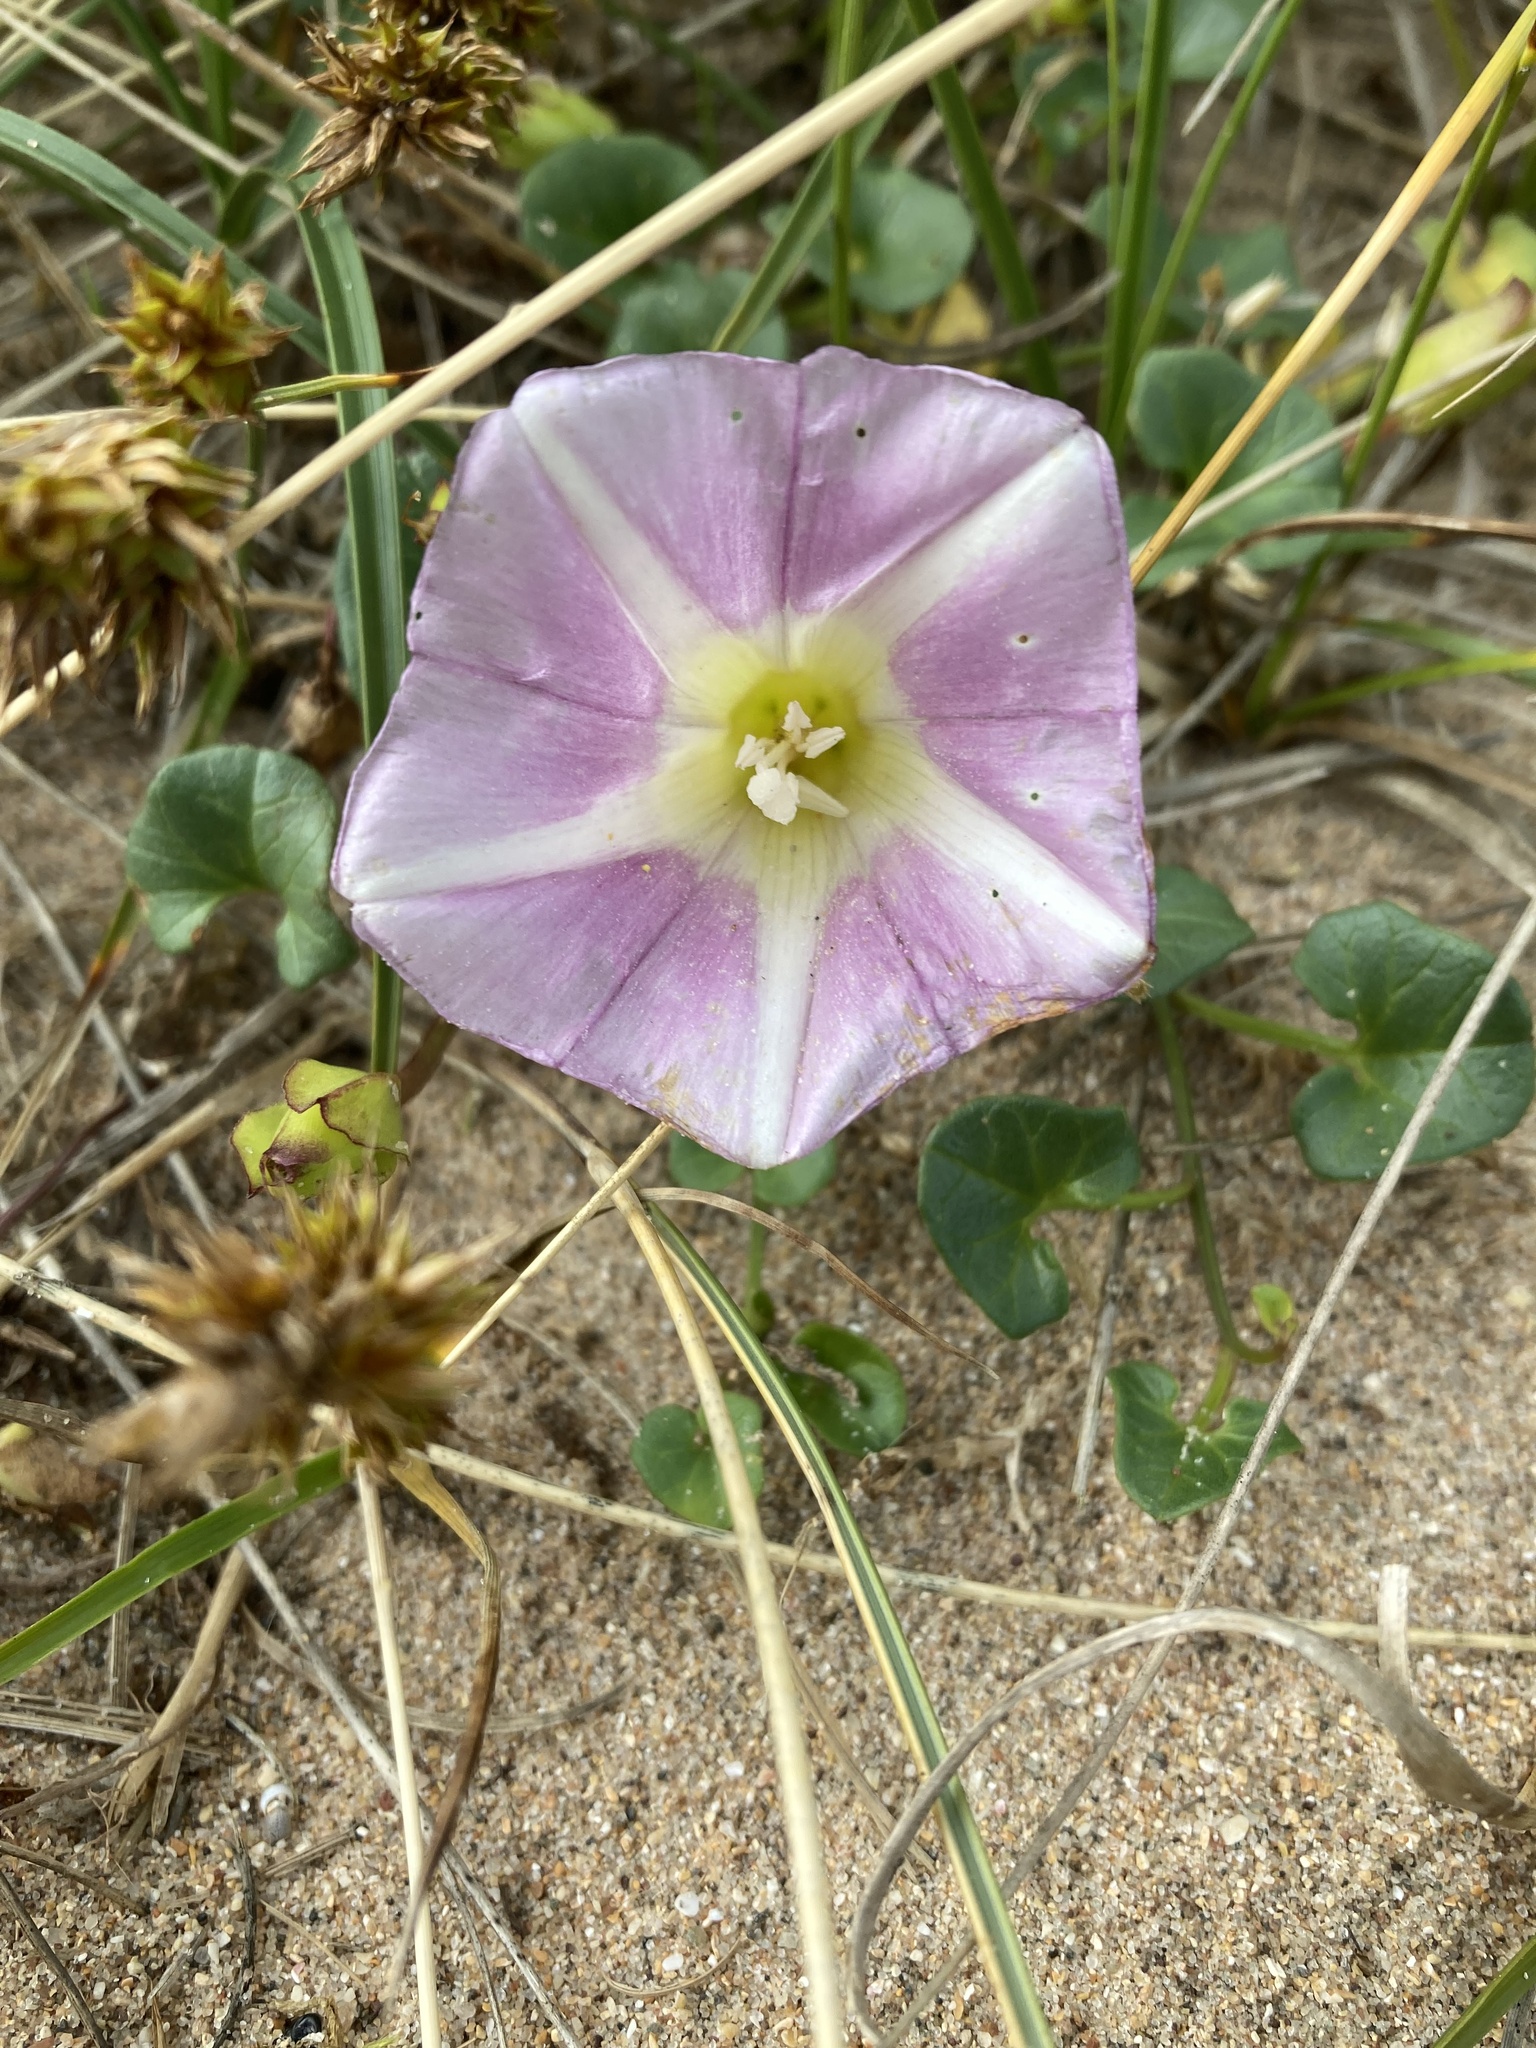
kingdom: Plantae
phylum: Tracheophyta
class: Magnoliopsida
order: Solanales
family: Convolvulaceae
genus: Calystegia
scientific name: Calystegia soldanella
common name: Sea bindweed
